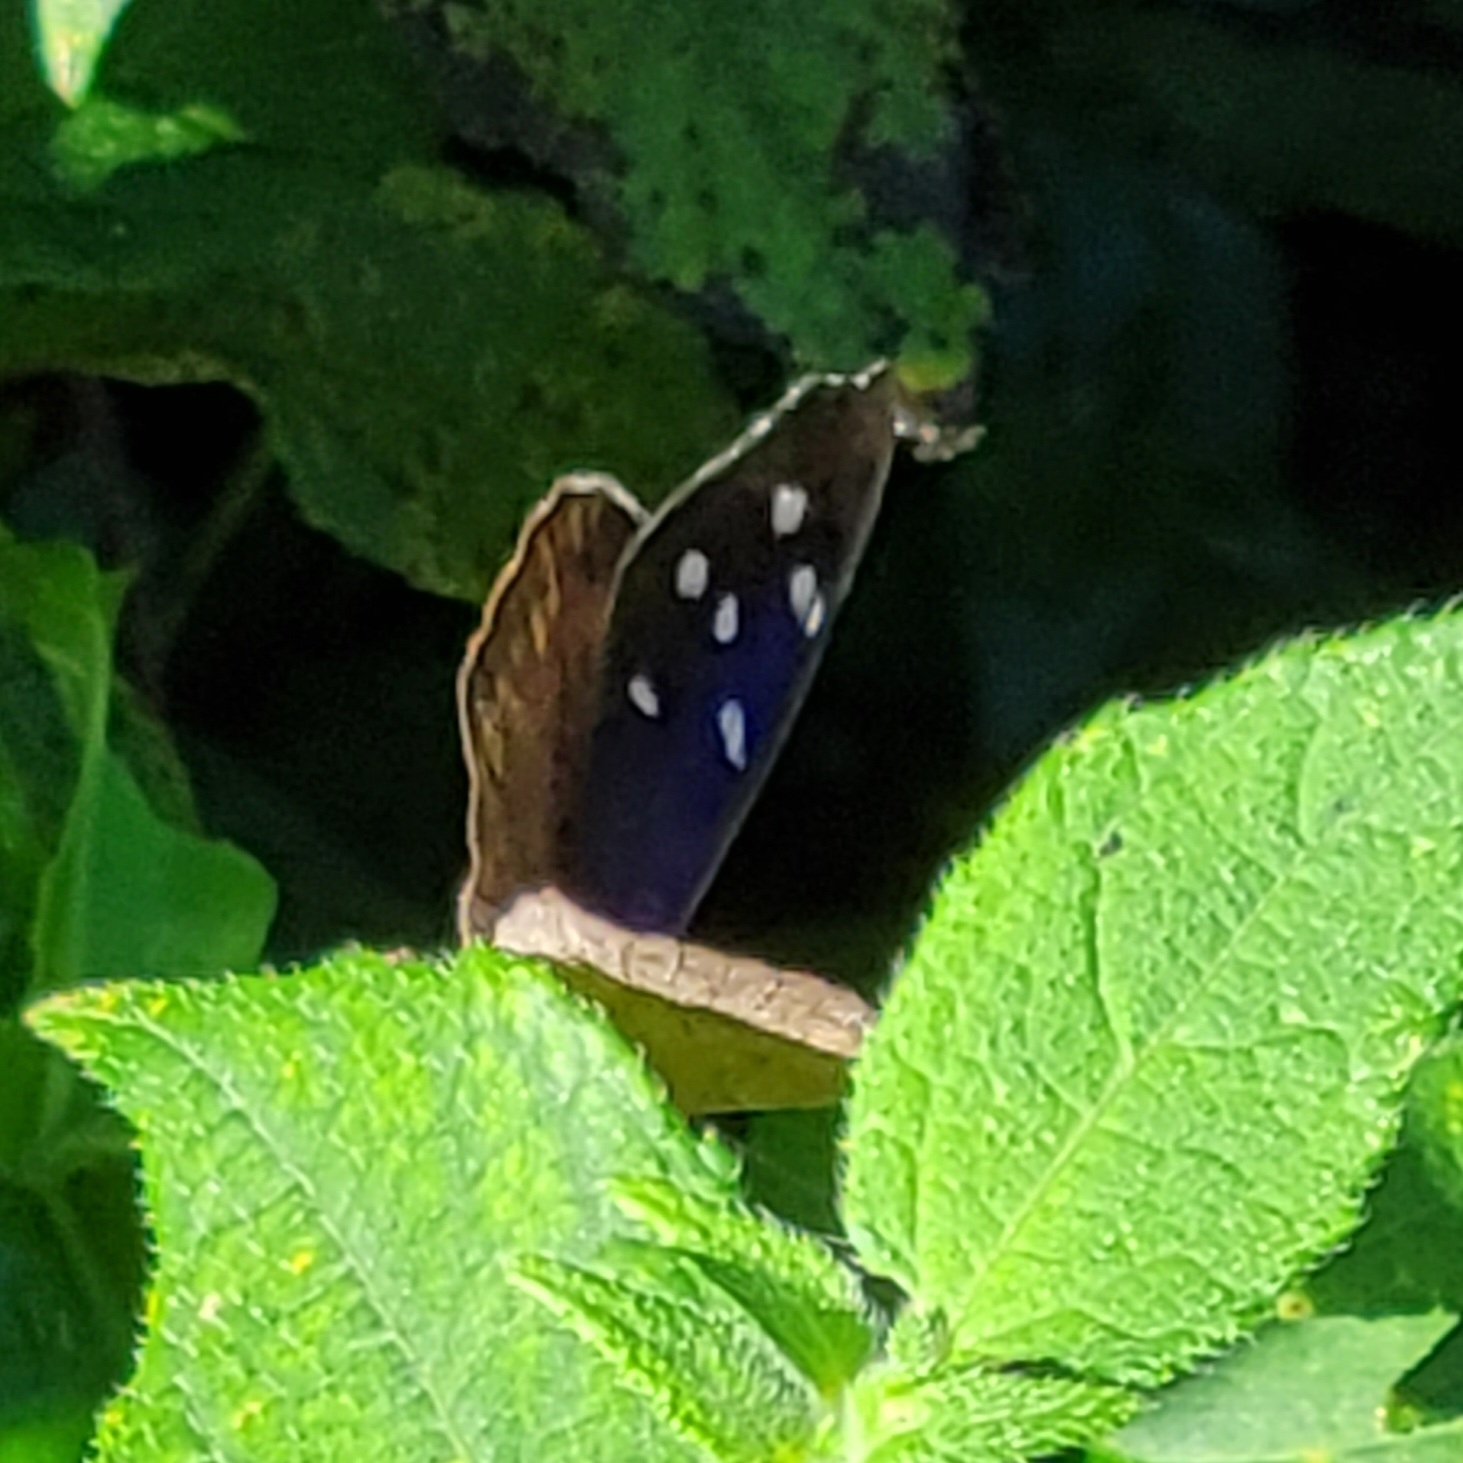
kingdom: Animalia
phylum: Arthropoda
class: Insecta
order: Lepidoptera
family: Nymphalidae
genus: Eunica
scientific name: Eunica tatila
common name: Florida purplewing
